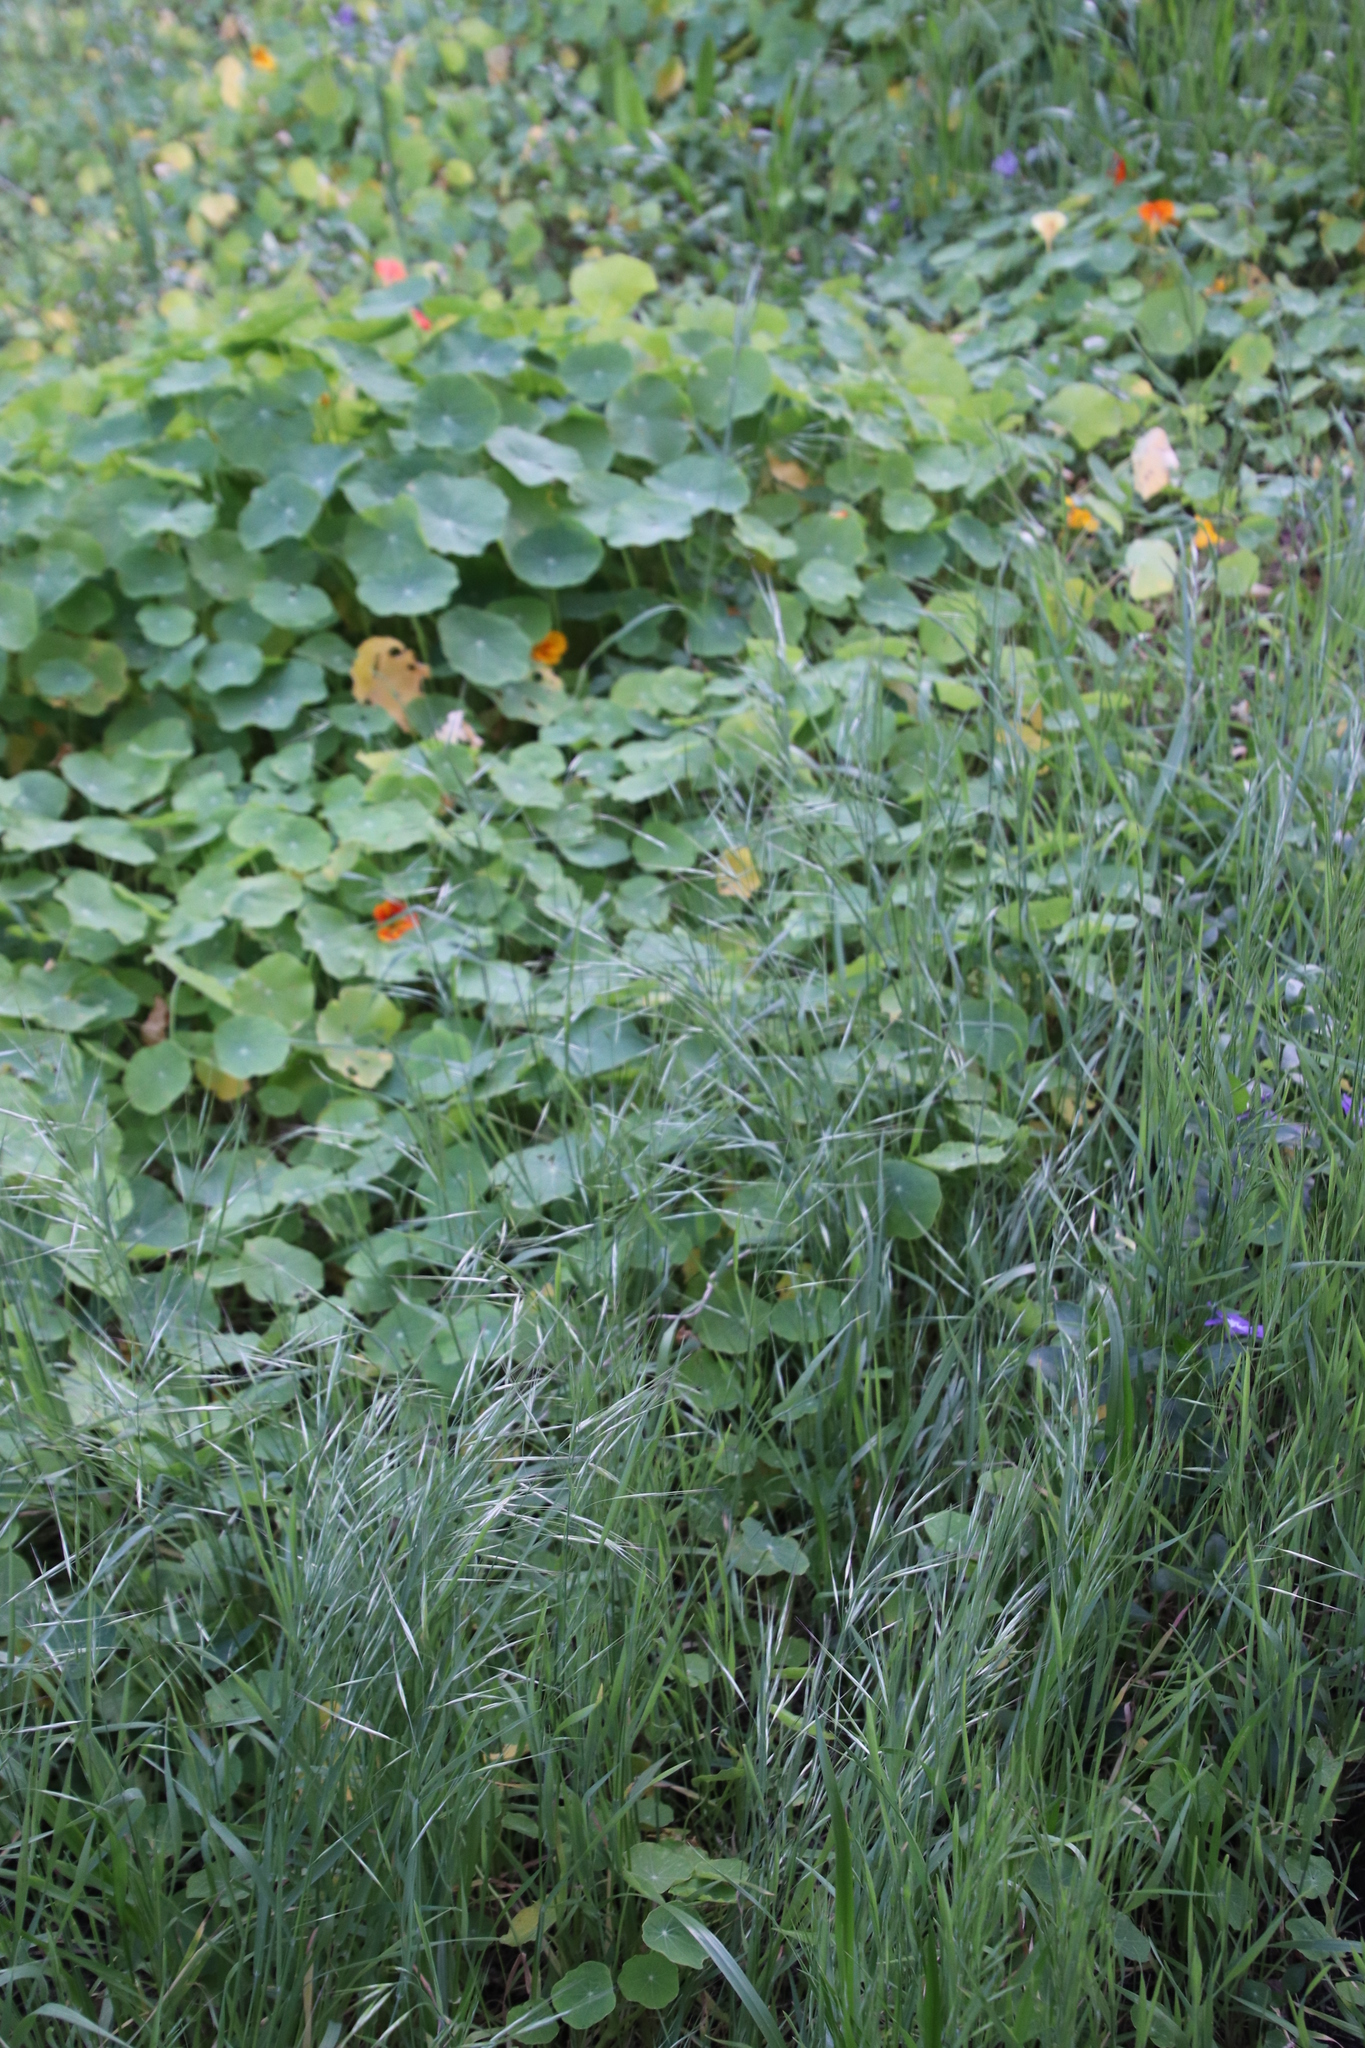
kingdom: Plantae
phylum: Tracheophyta
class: Magnoliopsida
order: Brassicales
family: Tropaeolaceae
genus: Tropaeolum
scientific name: Tropaeolum majus
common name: Nasturtium
